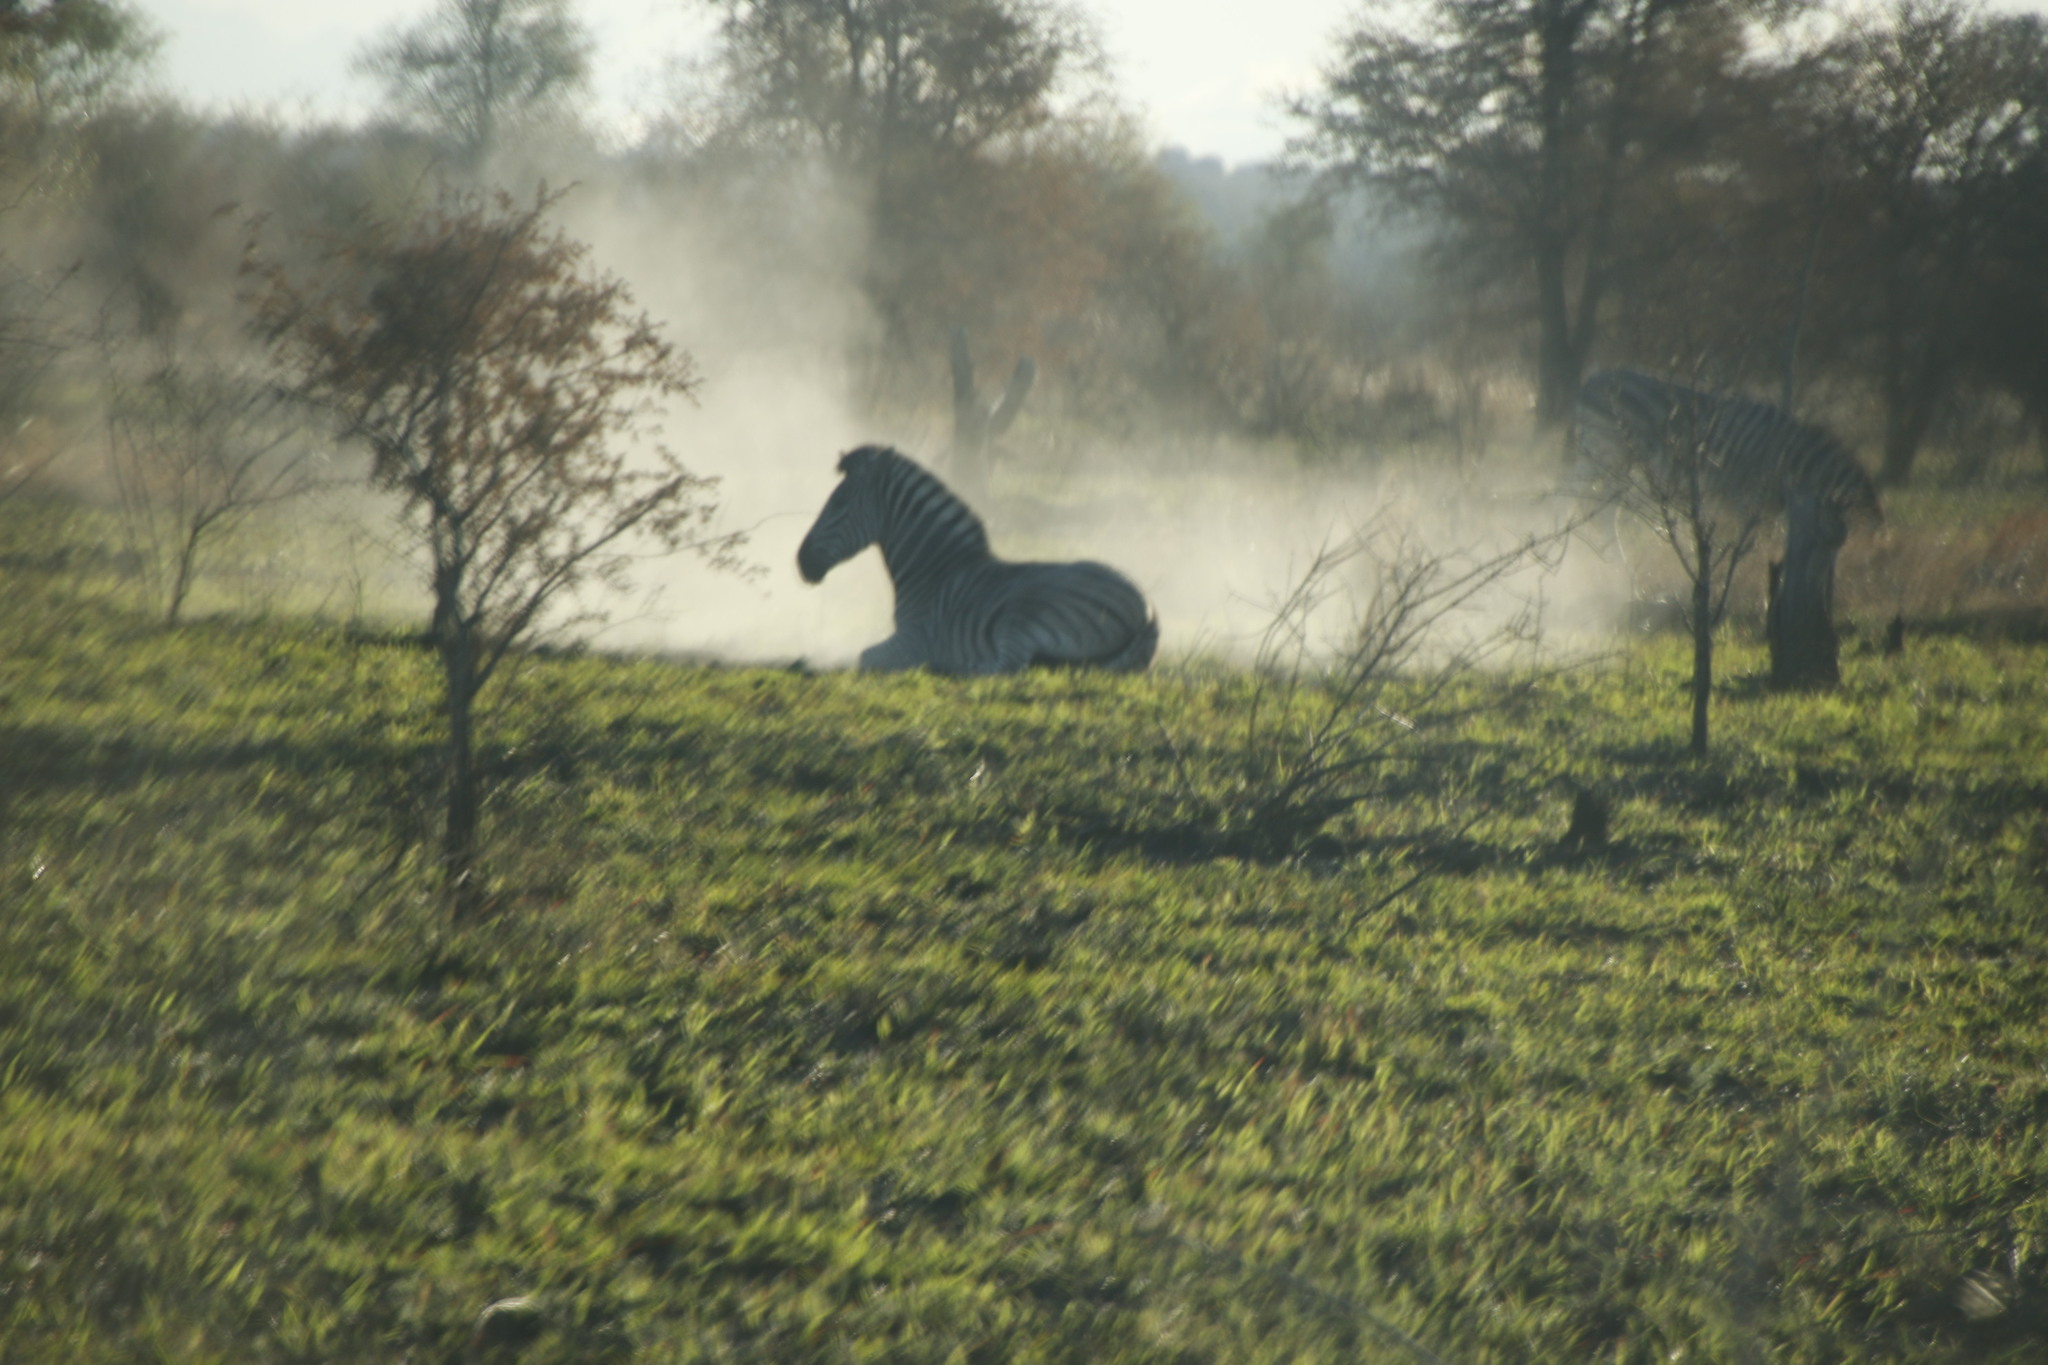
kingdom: Animalia
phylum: Chordata
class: Mammalia
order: Perissodactyla
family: Equidae
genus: Equus
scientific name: Equus quagga
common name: Plains zebra
